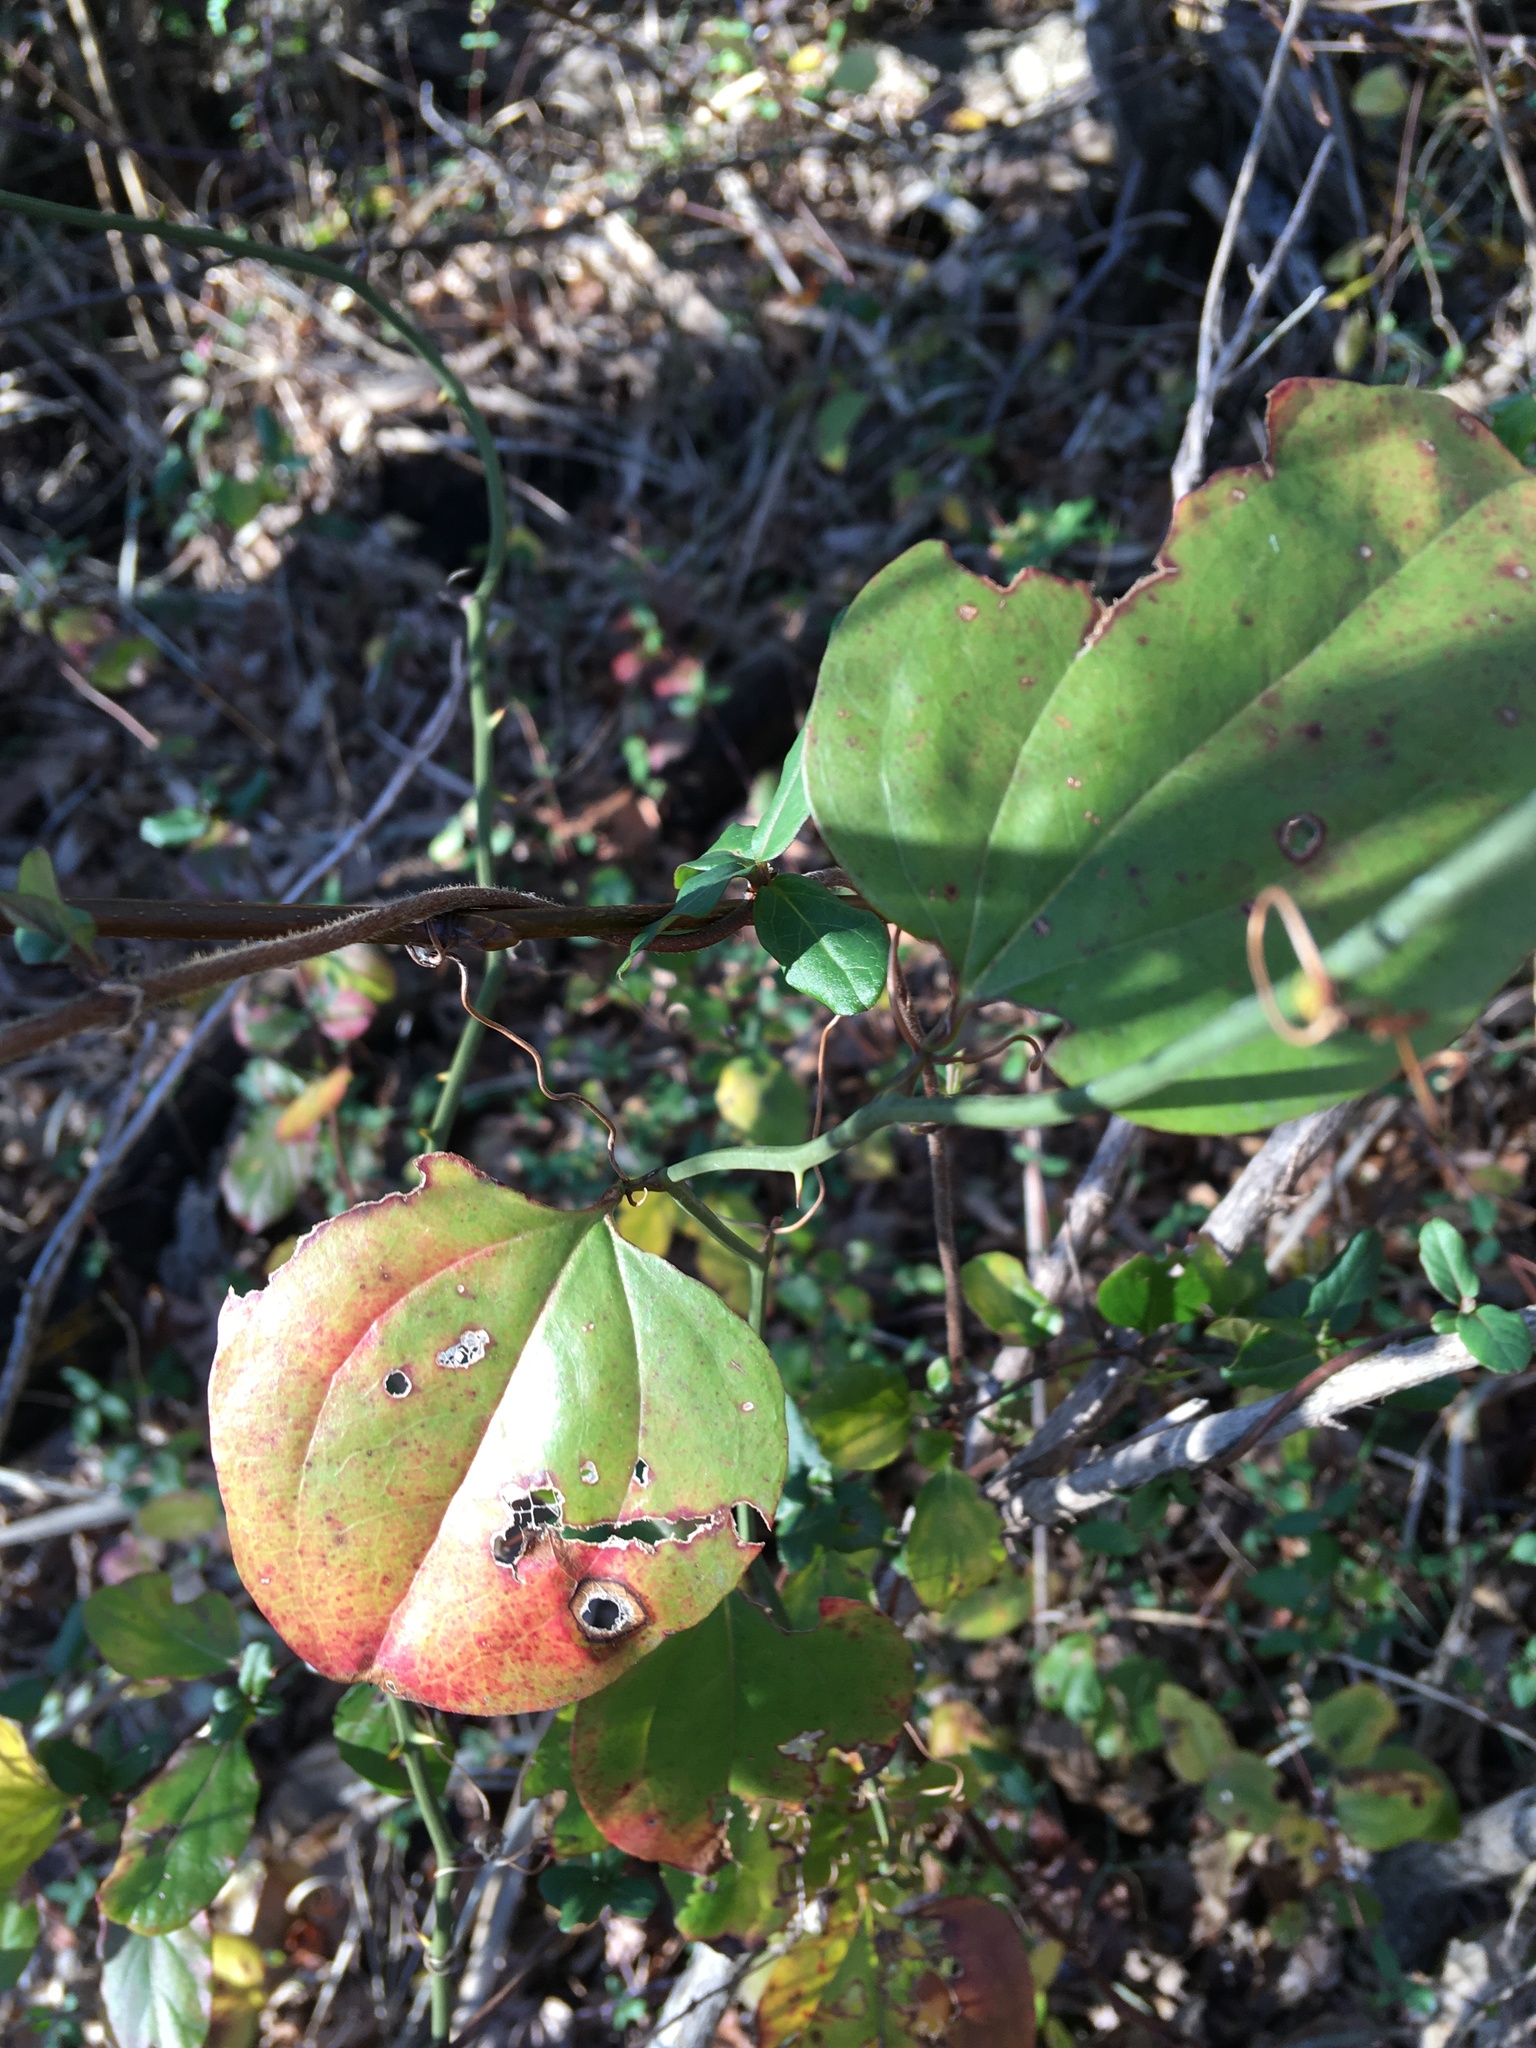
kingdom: Plantae
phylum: Tracheophyta
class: Liliopsida
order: Liliales
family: Smilacaceae
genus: Smilax
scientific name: Smilax rotundifolia
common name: Bullbriar
